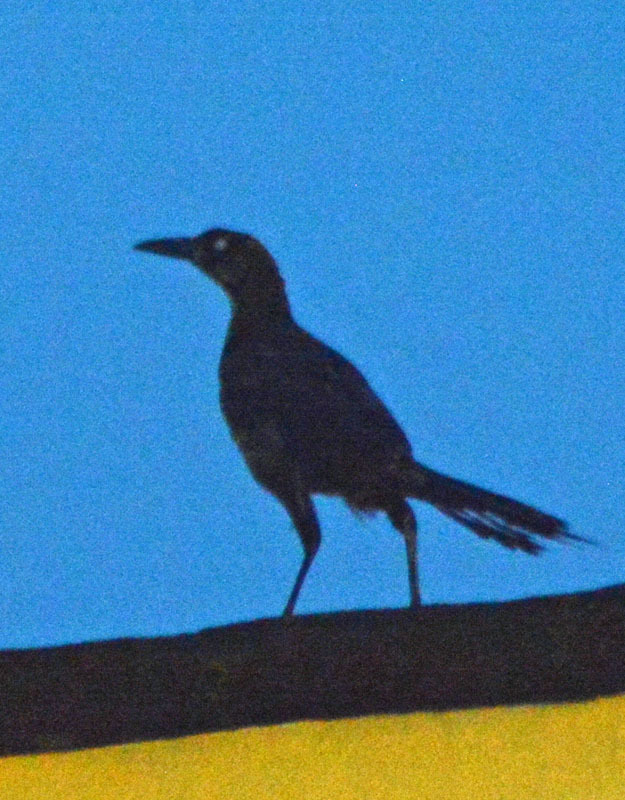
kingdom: Animalia
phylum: Chordata
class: Aves
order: Passeriformes
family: Icteridae
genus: Quiscalus
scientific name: Quiscalus mexicanus
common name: Great-tailed grackle
